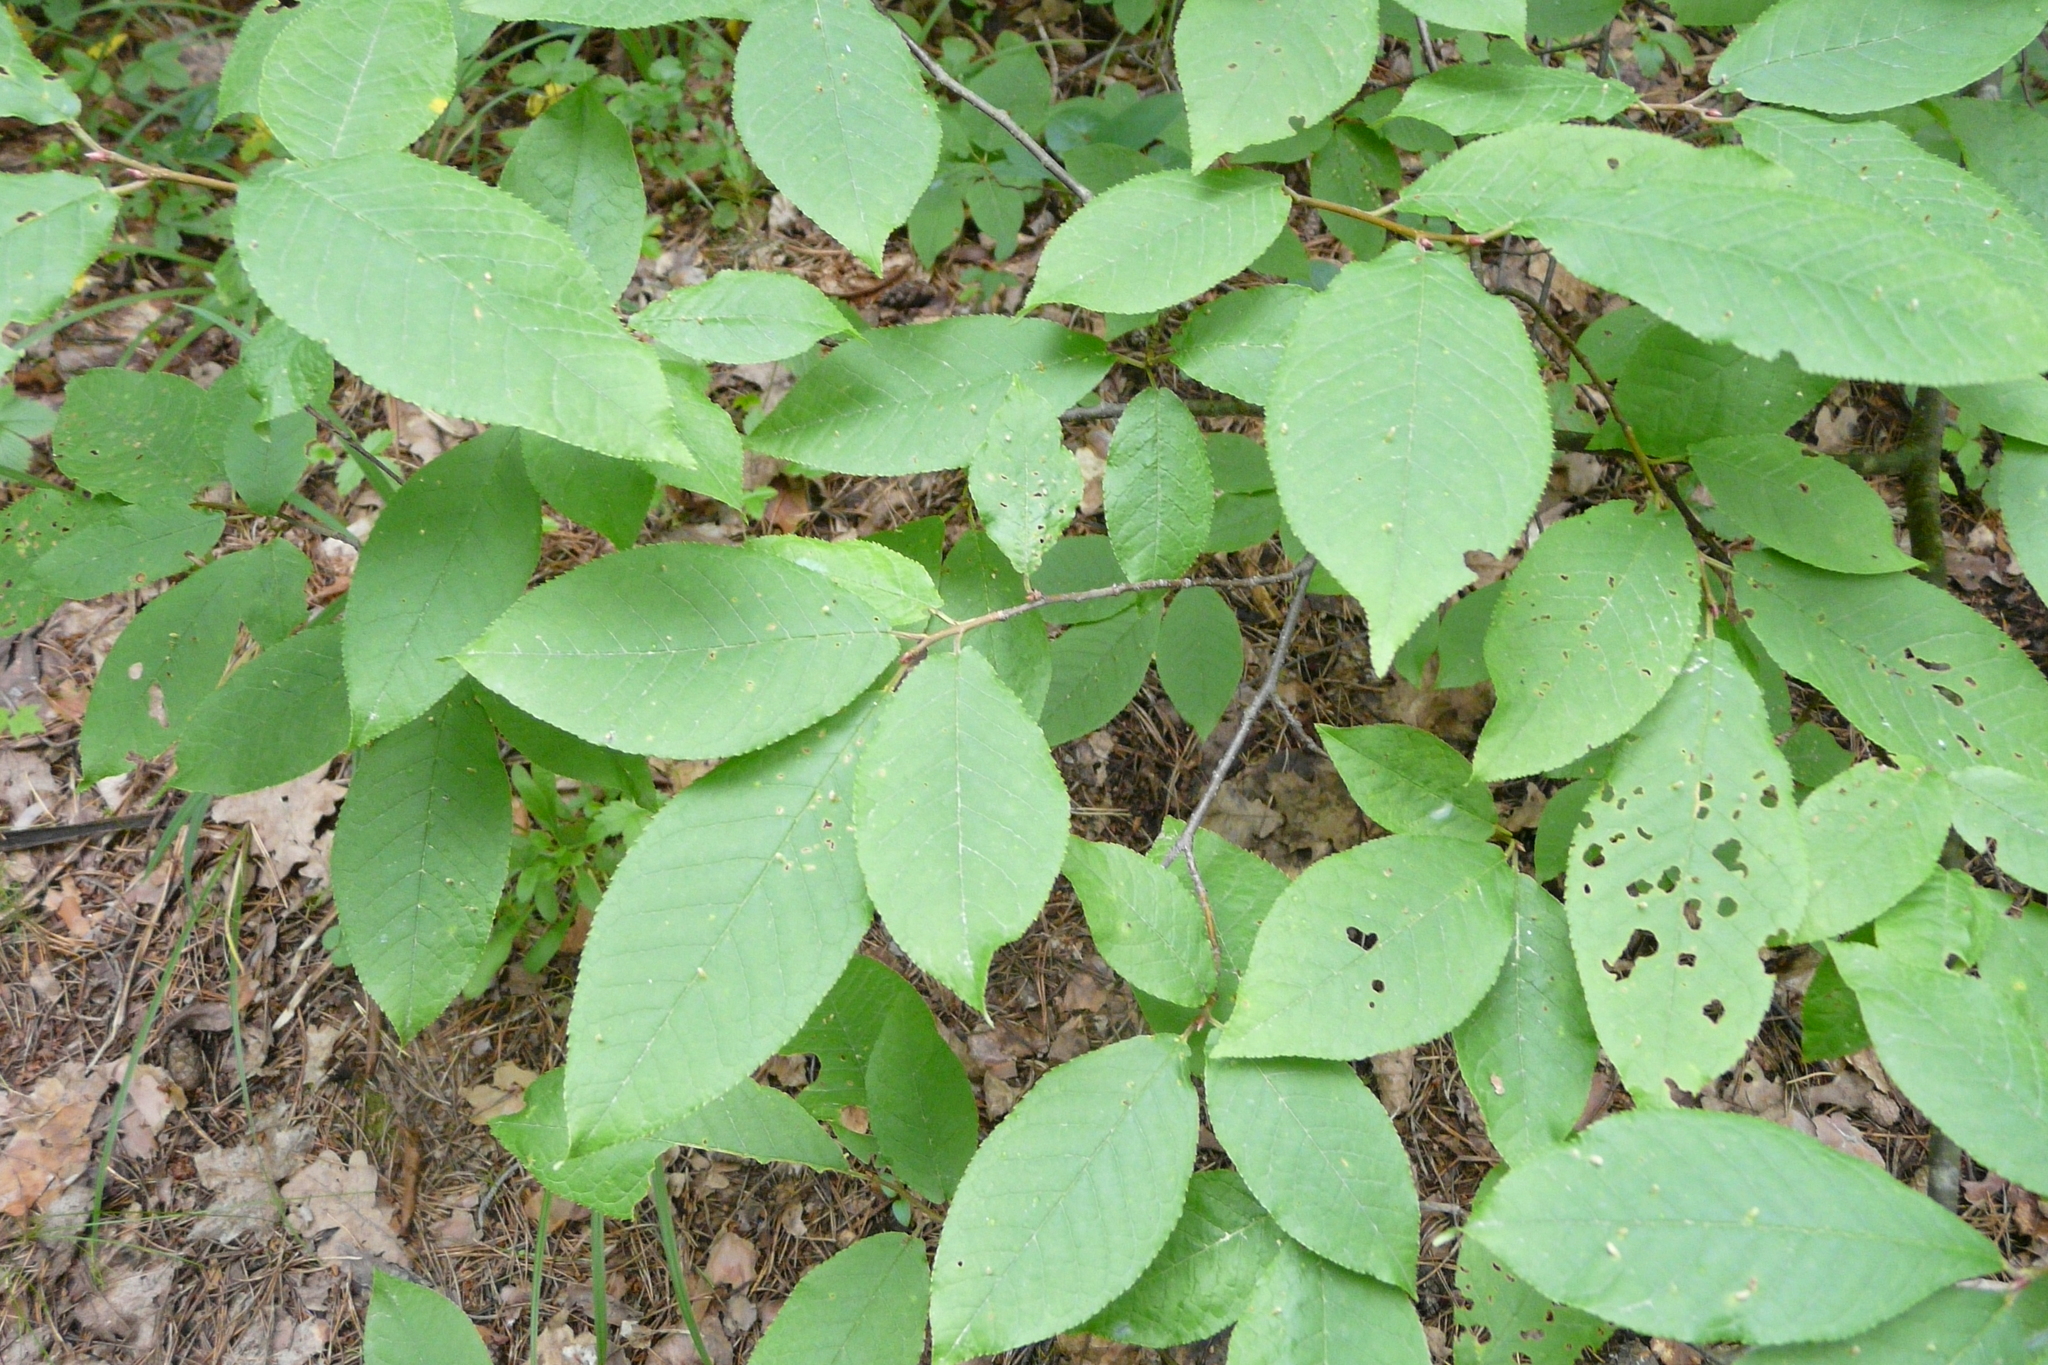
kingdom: Plantae
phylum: Tracheophyta
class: Magnoliopsida
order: Rosales
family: Rosaceae
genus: Prunus
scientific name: Prunus padus
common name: Bird cherry
